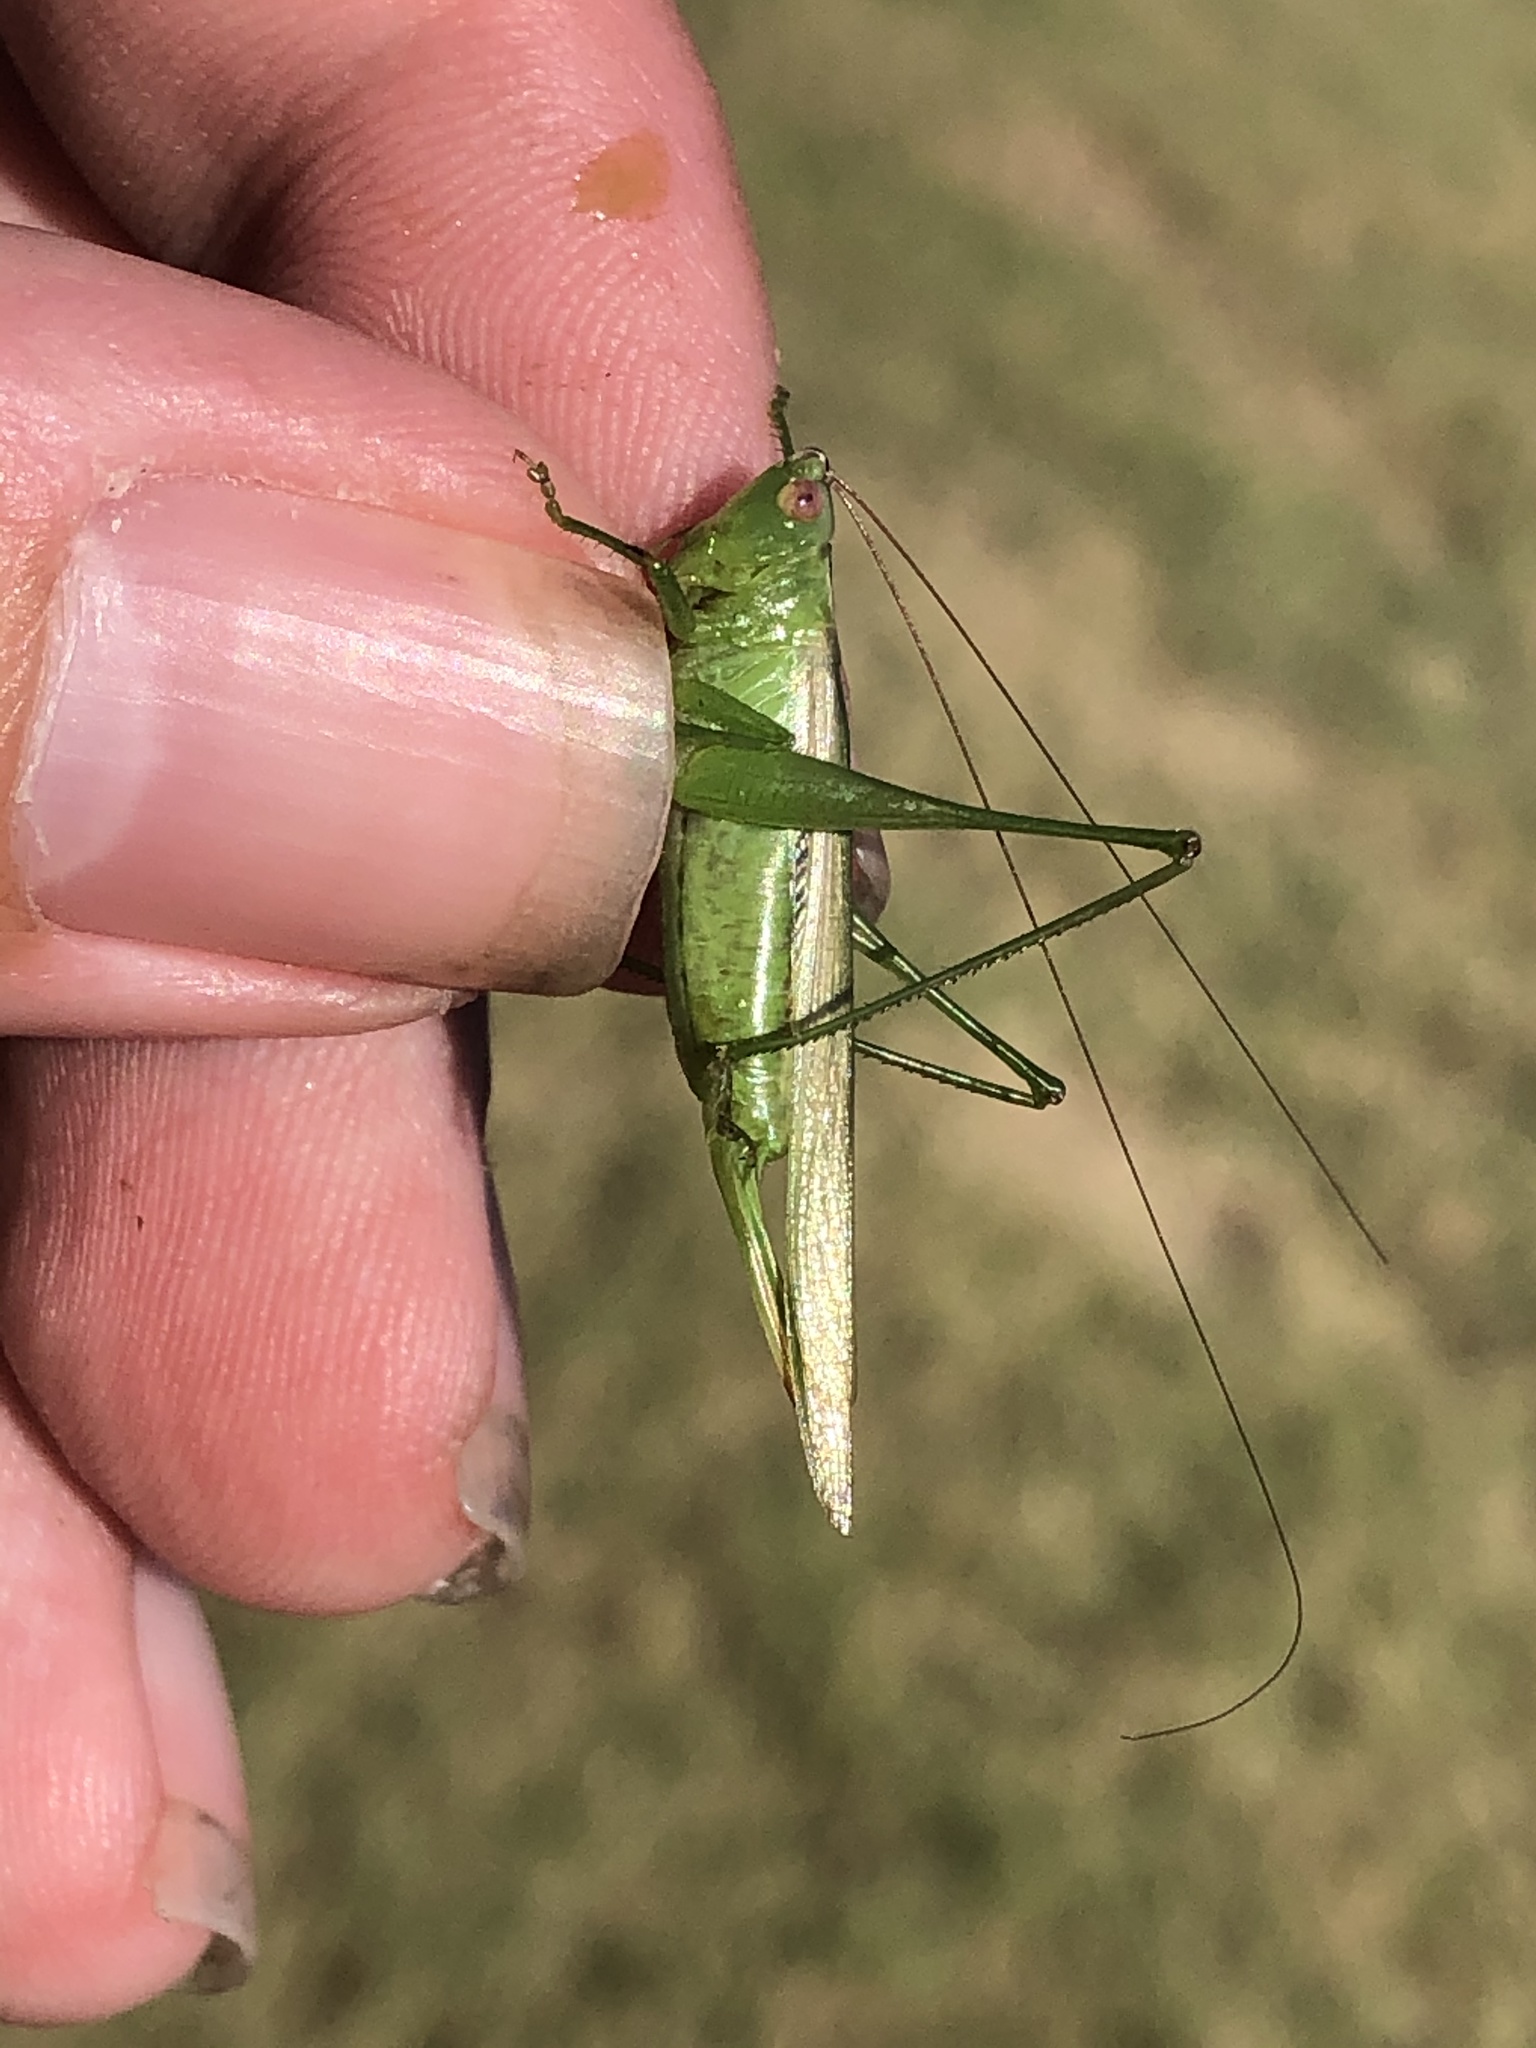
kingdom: Animalia
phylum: Arthropoda
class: Insecta
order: Orthoptera
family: Tettigoniidae
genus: Conocephalus
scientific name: Conocephalus fasciatus
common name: Slender meadow katydid
